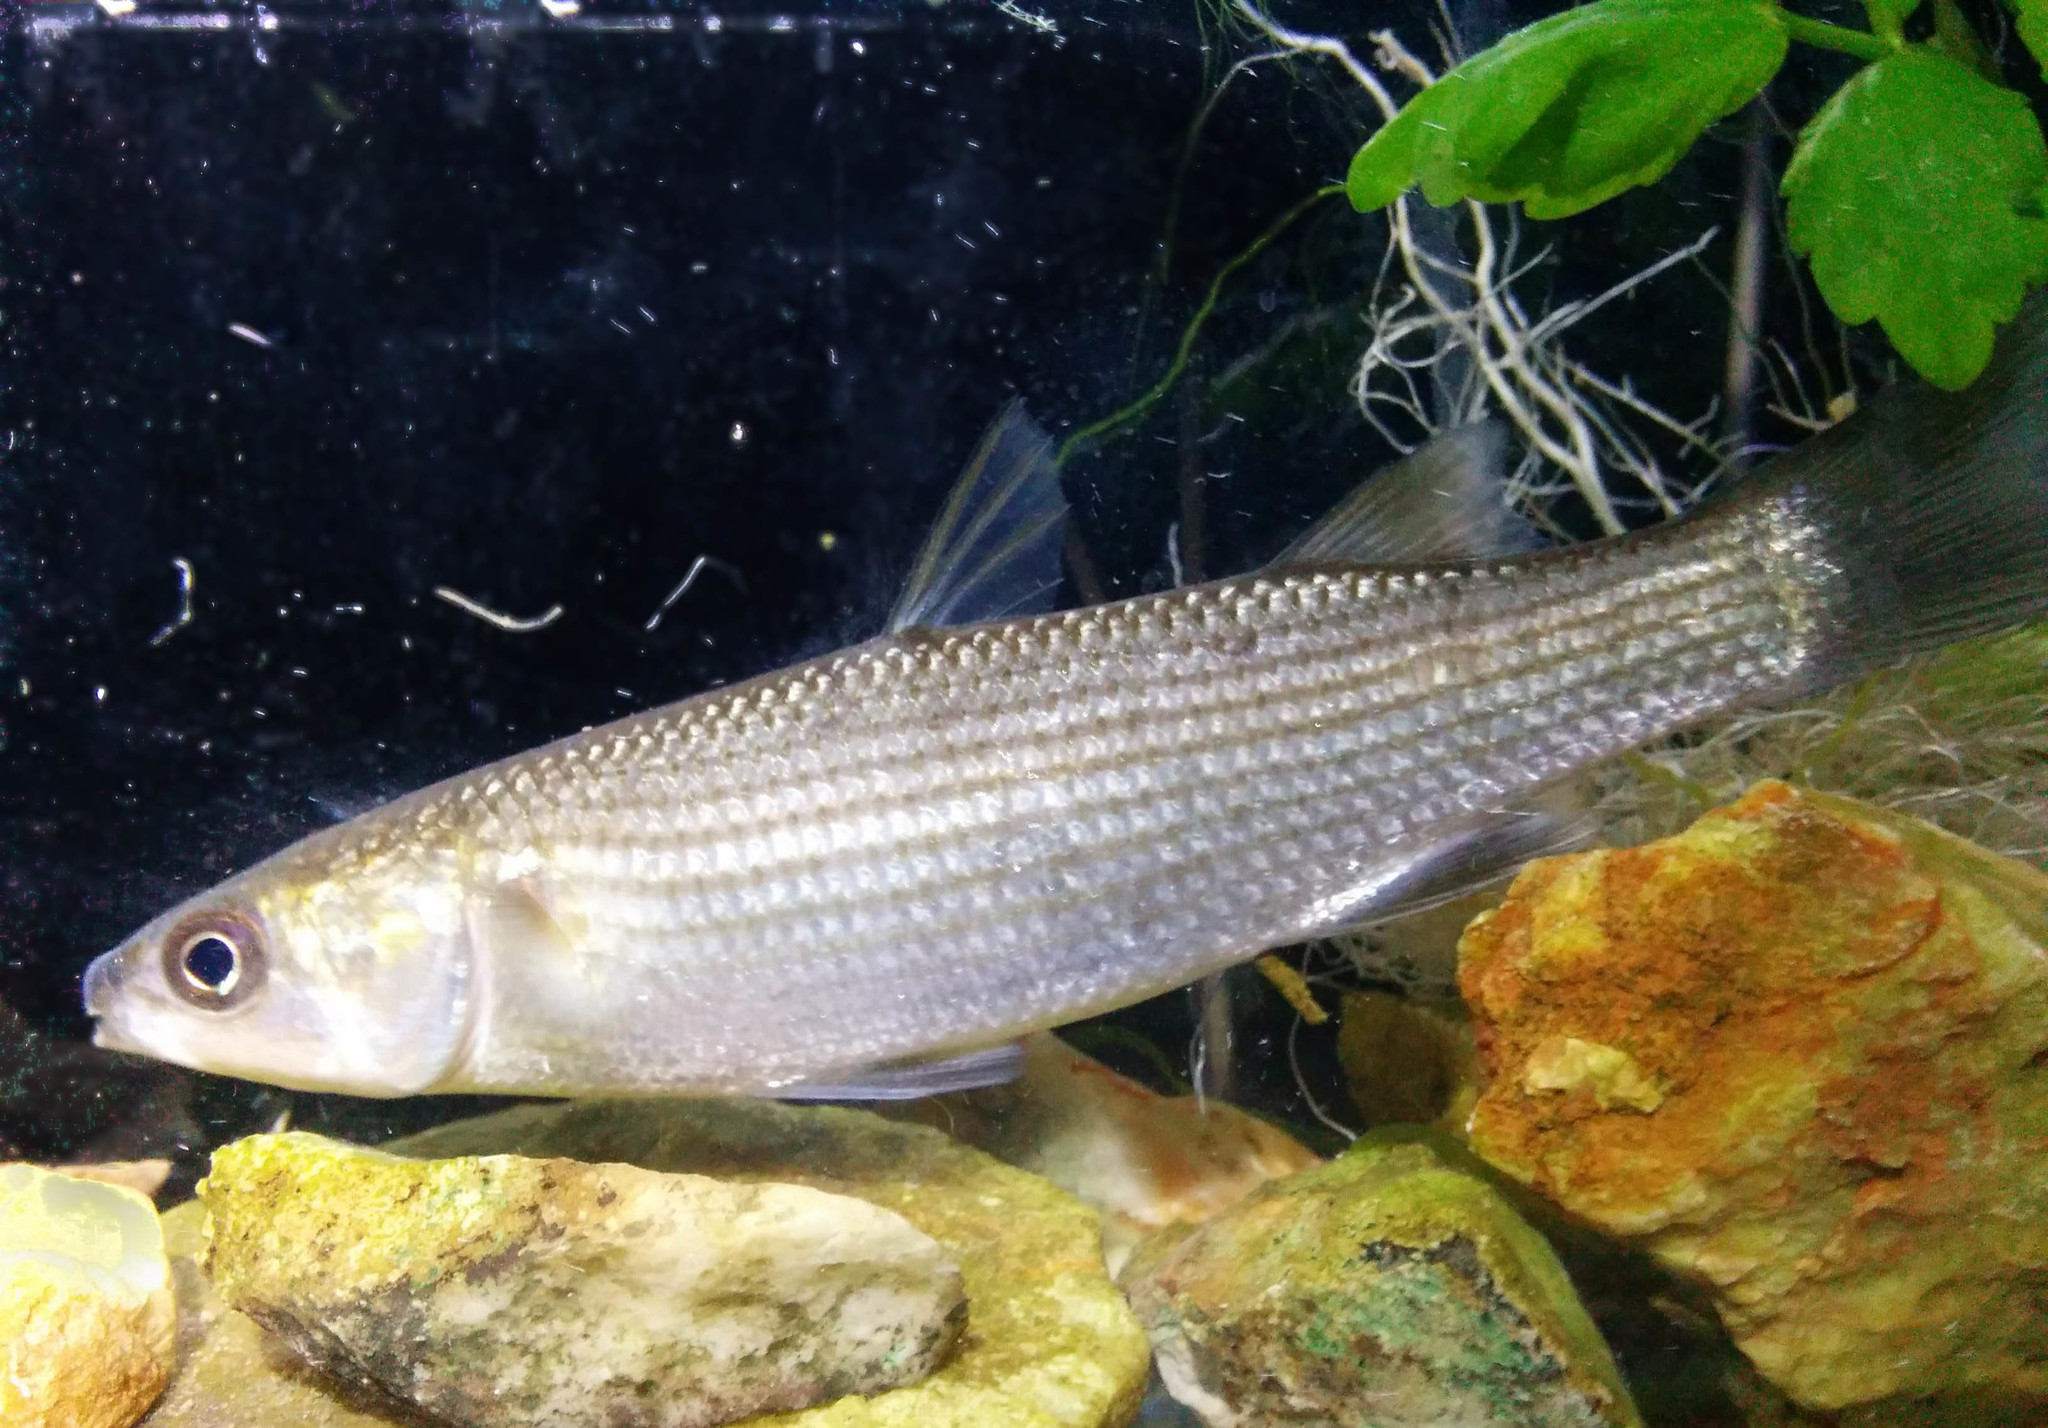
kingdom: Animalia
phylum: Chordata
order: Mugiliformes
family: Mugilidae
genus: Chelon
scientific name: Chelon labrosus
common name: Thick-lipped mullet
